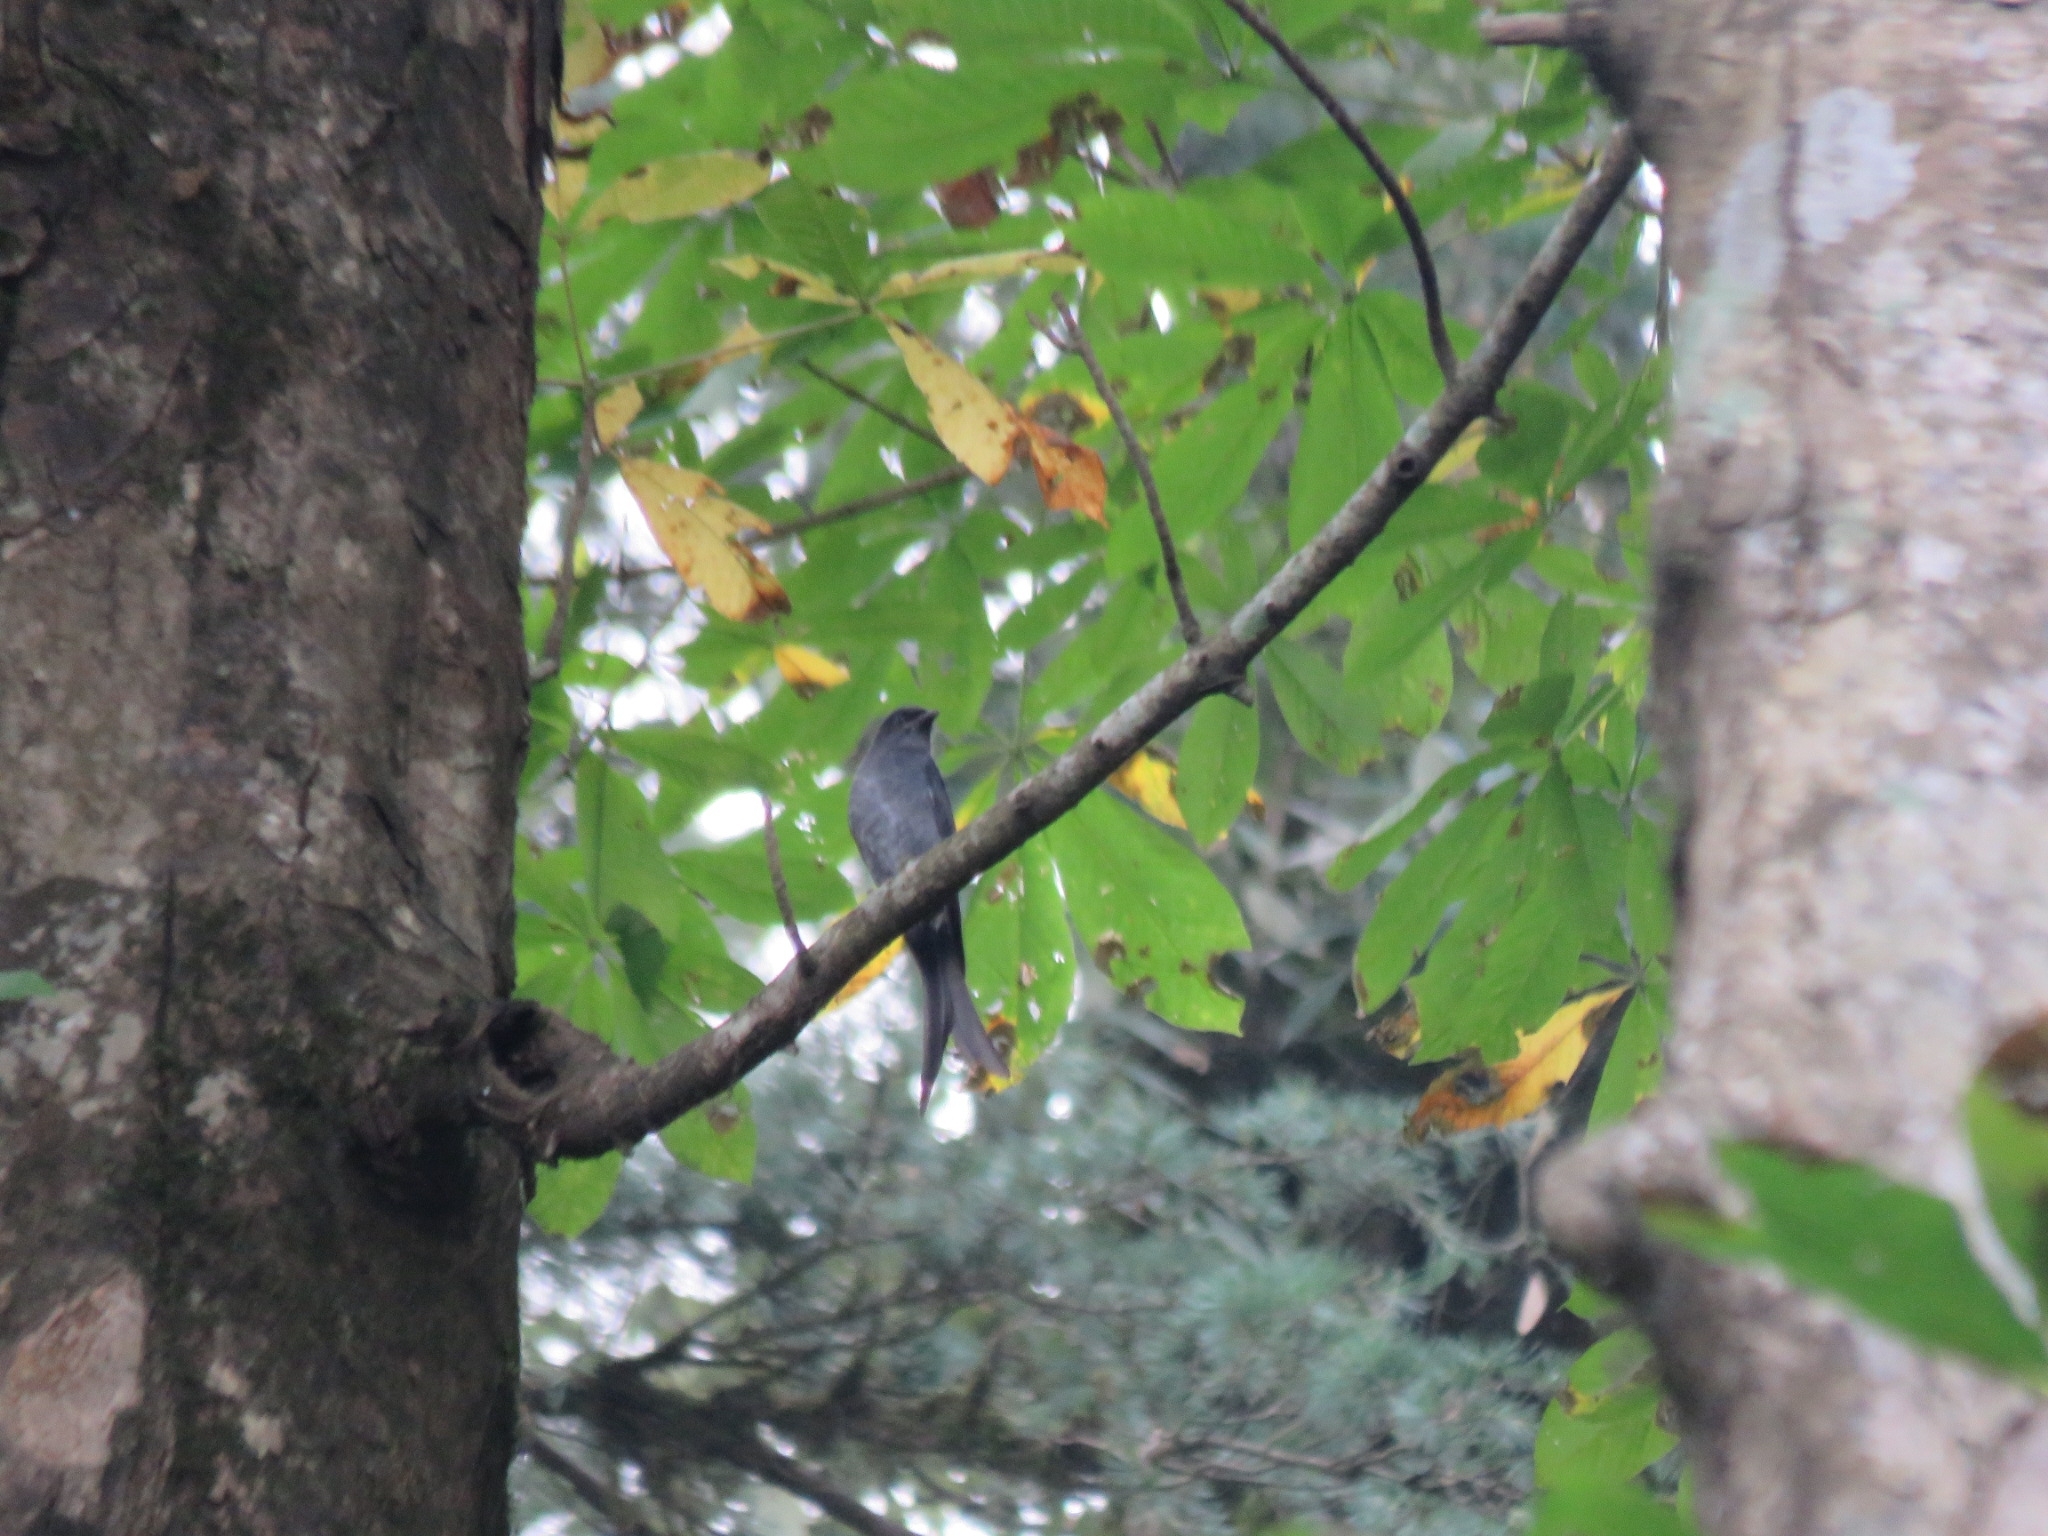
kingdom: Animalia
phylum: Chordata
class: Aves
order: Passeriformes
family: Dicruridae
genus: Dicrurus
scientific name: Dicrurus leucophaeus
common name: Ashy drongo
